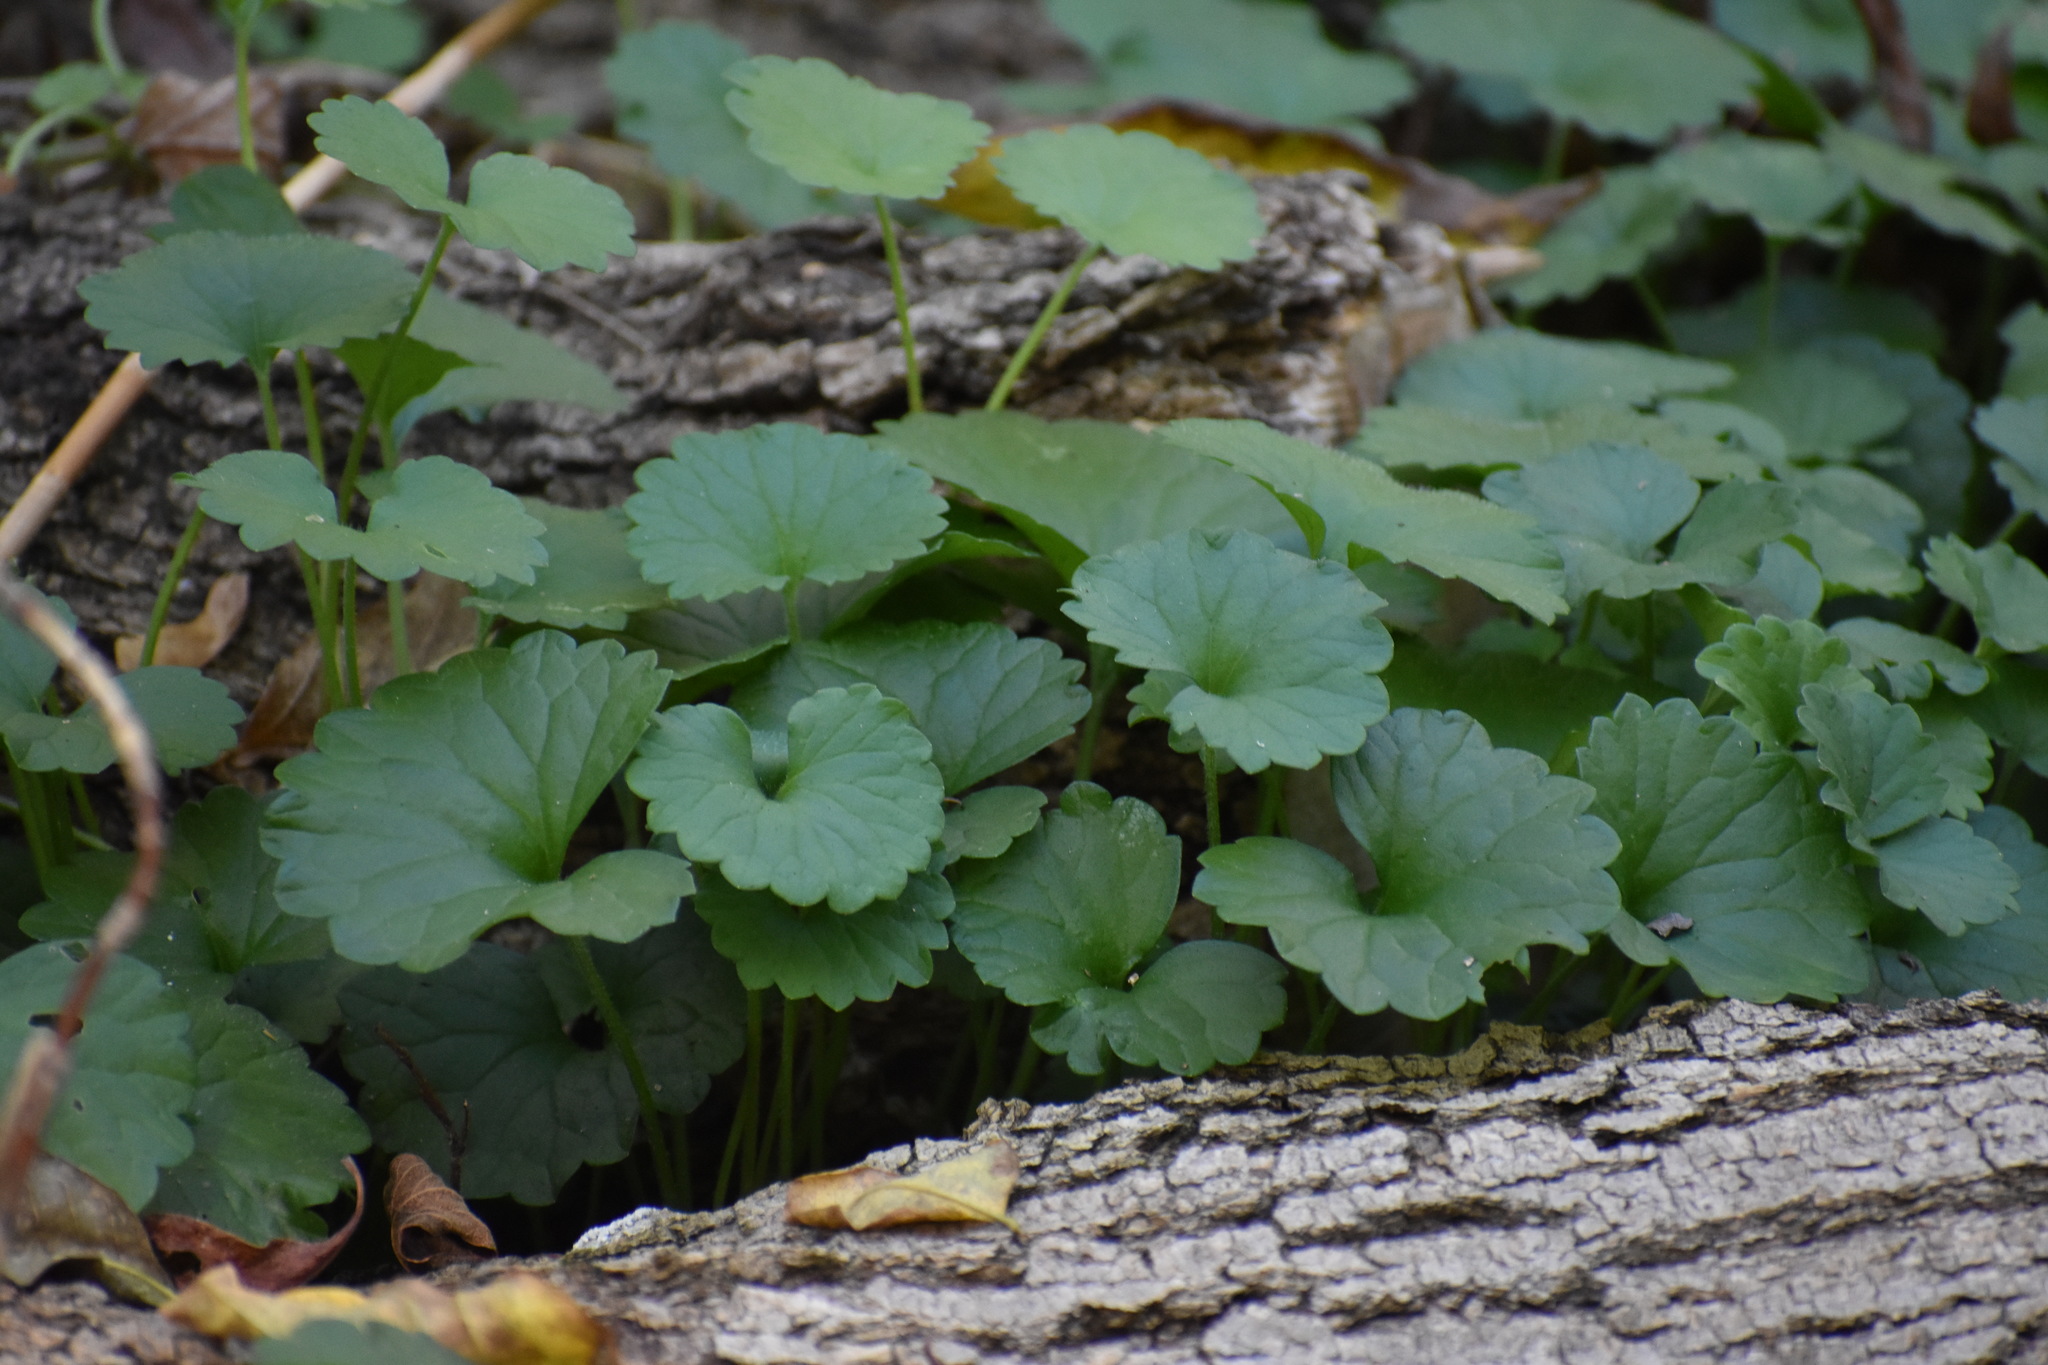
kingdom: Plantae
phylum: Tracheophyta
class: Magnoliopsida
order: Lamiales
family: Lamiaceae
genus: Glechoma
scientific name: Glechoma hederacea
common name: Ground ivy
